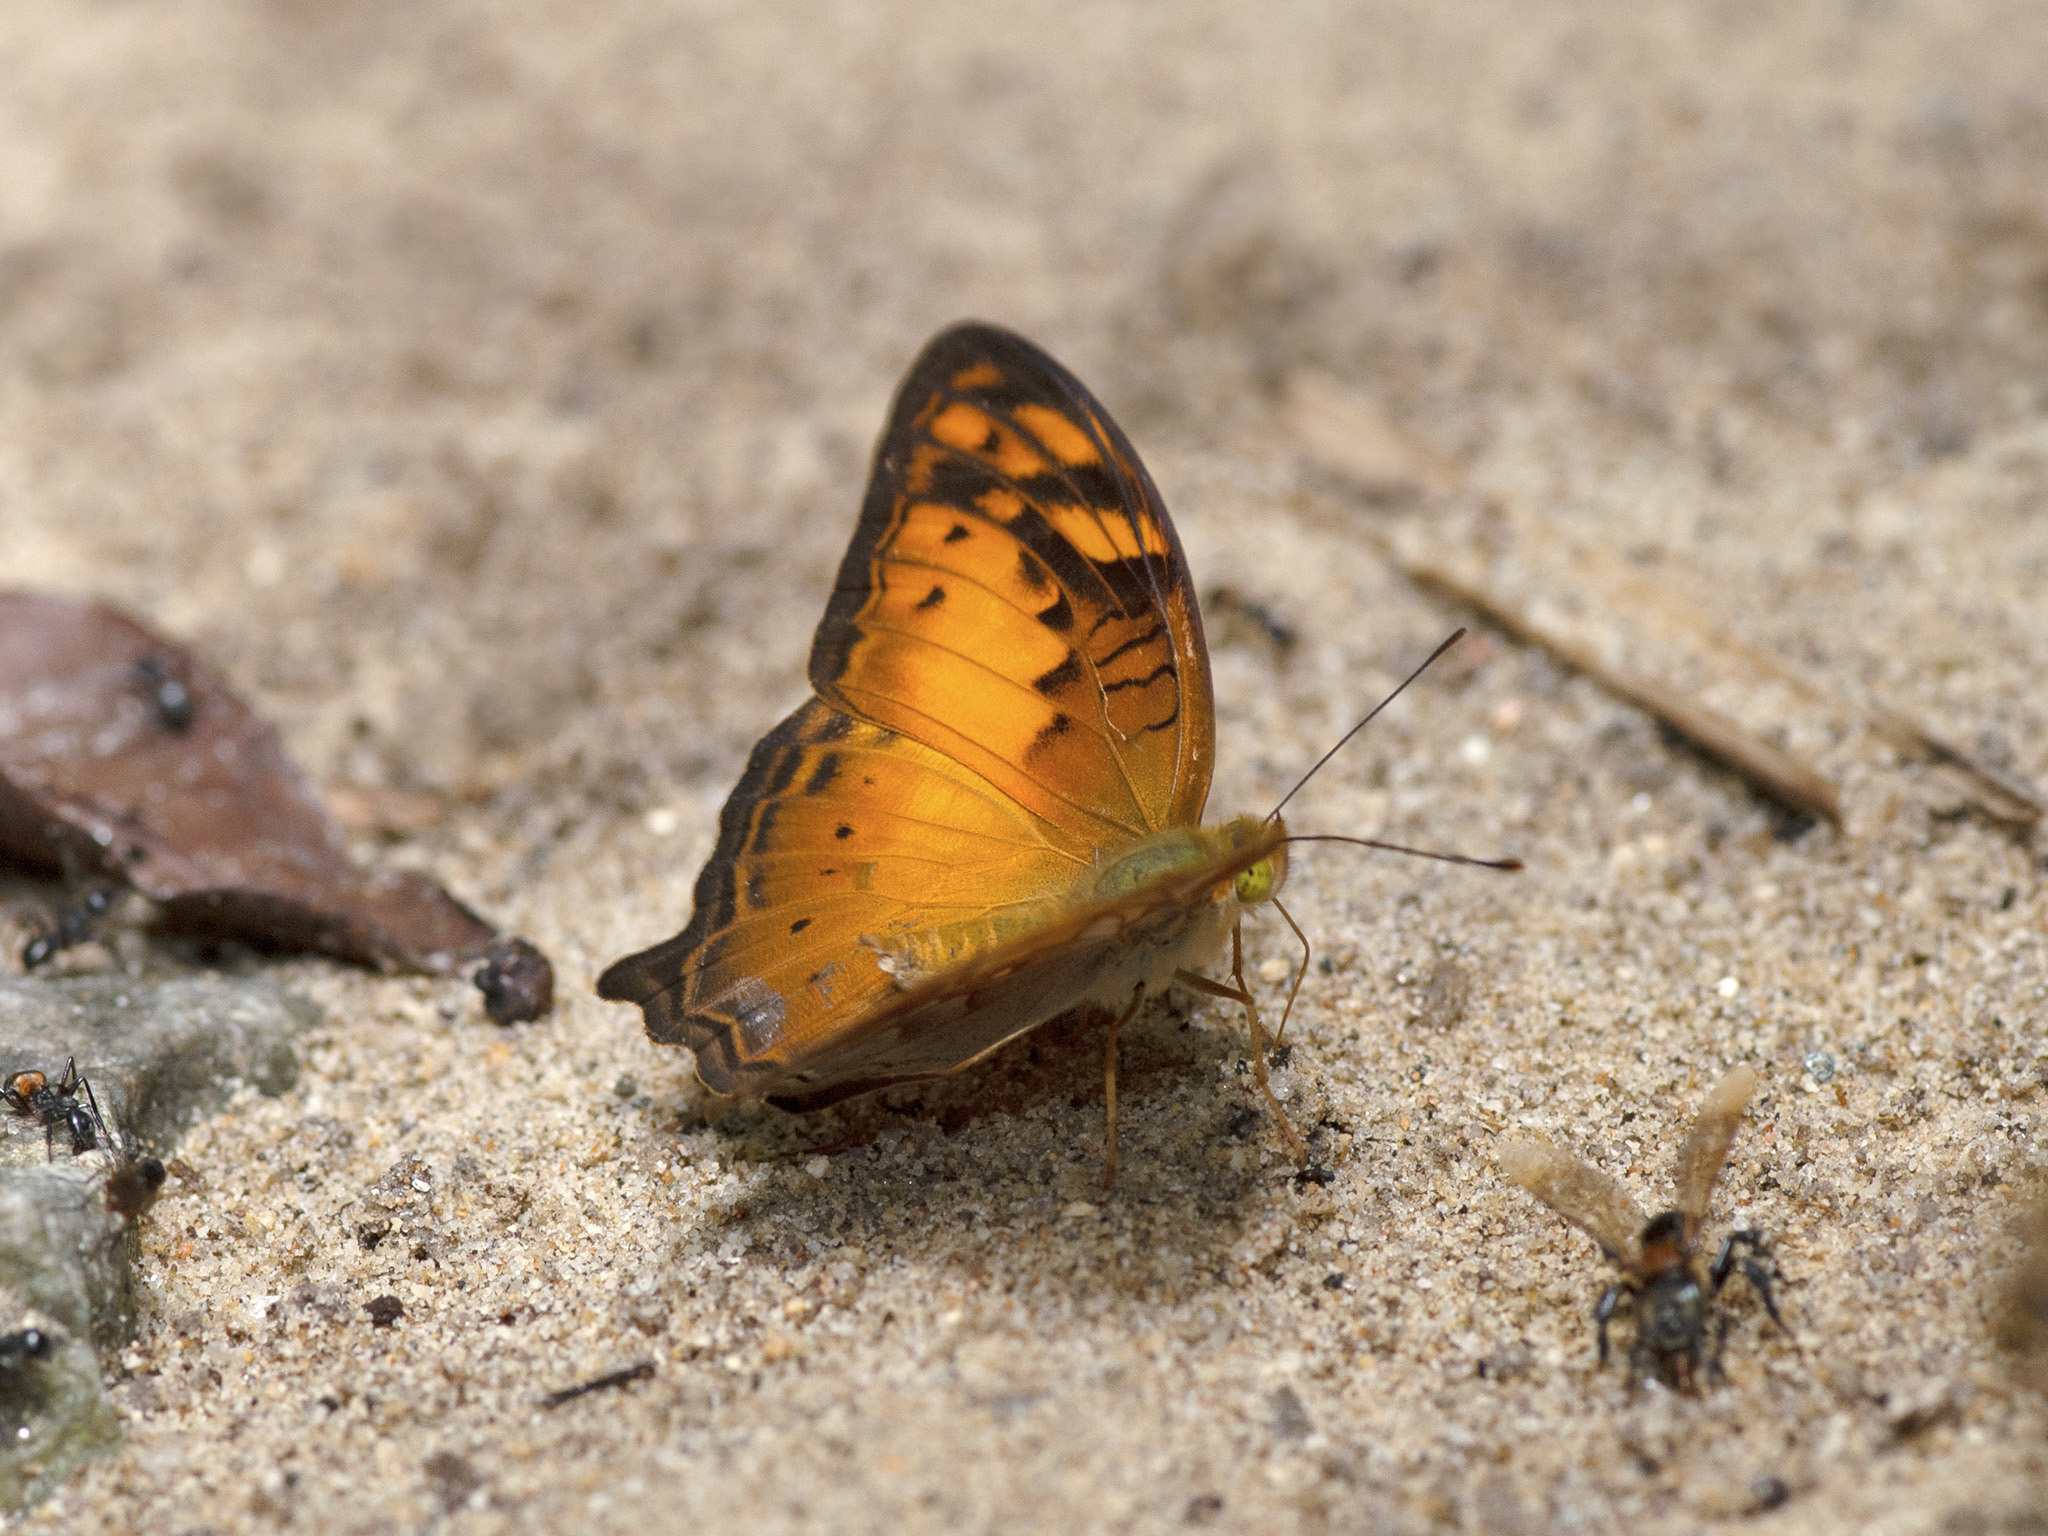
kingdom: Animalia
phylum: Arthropoda
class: Insecta
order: Lepidoptera
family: Nymphalidae
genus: Vagrans
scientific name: Vagrans sinha
